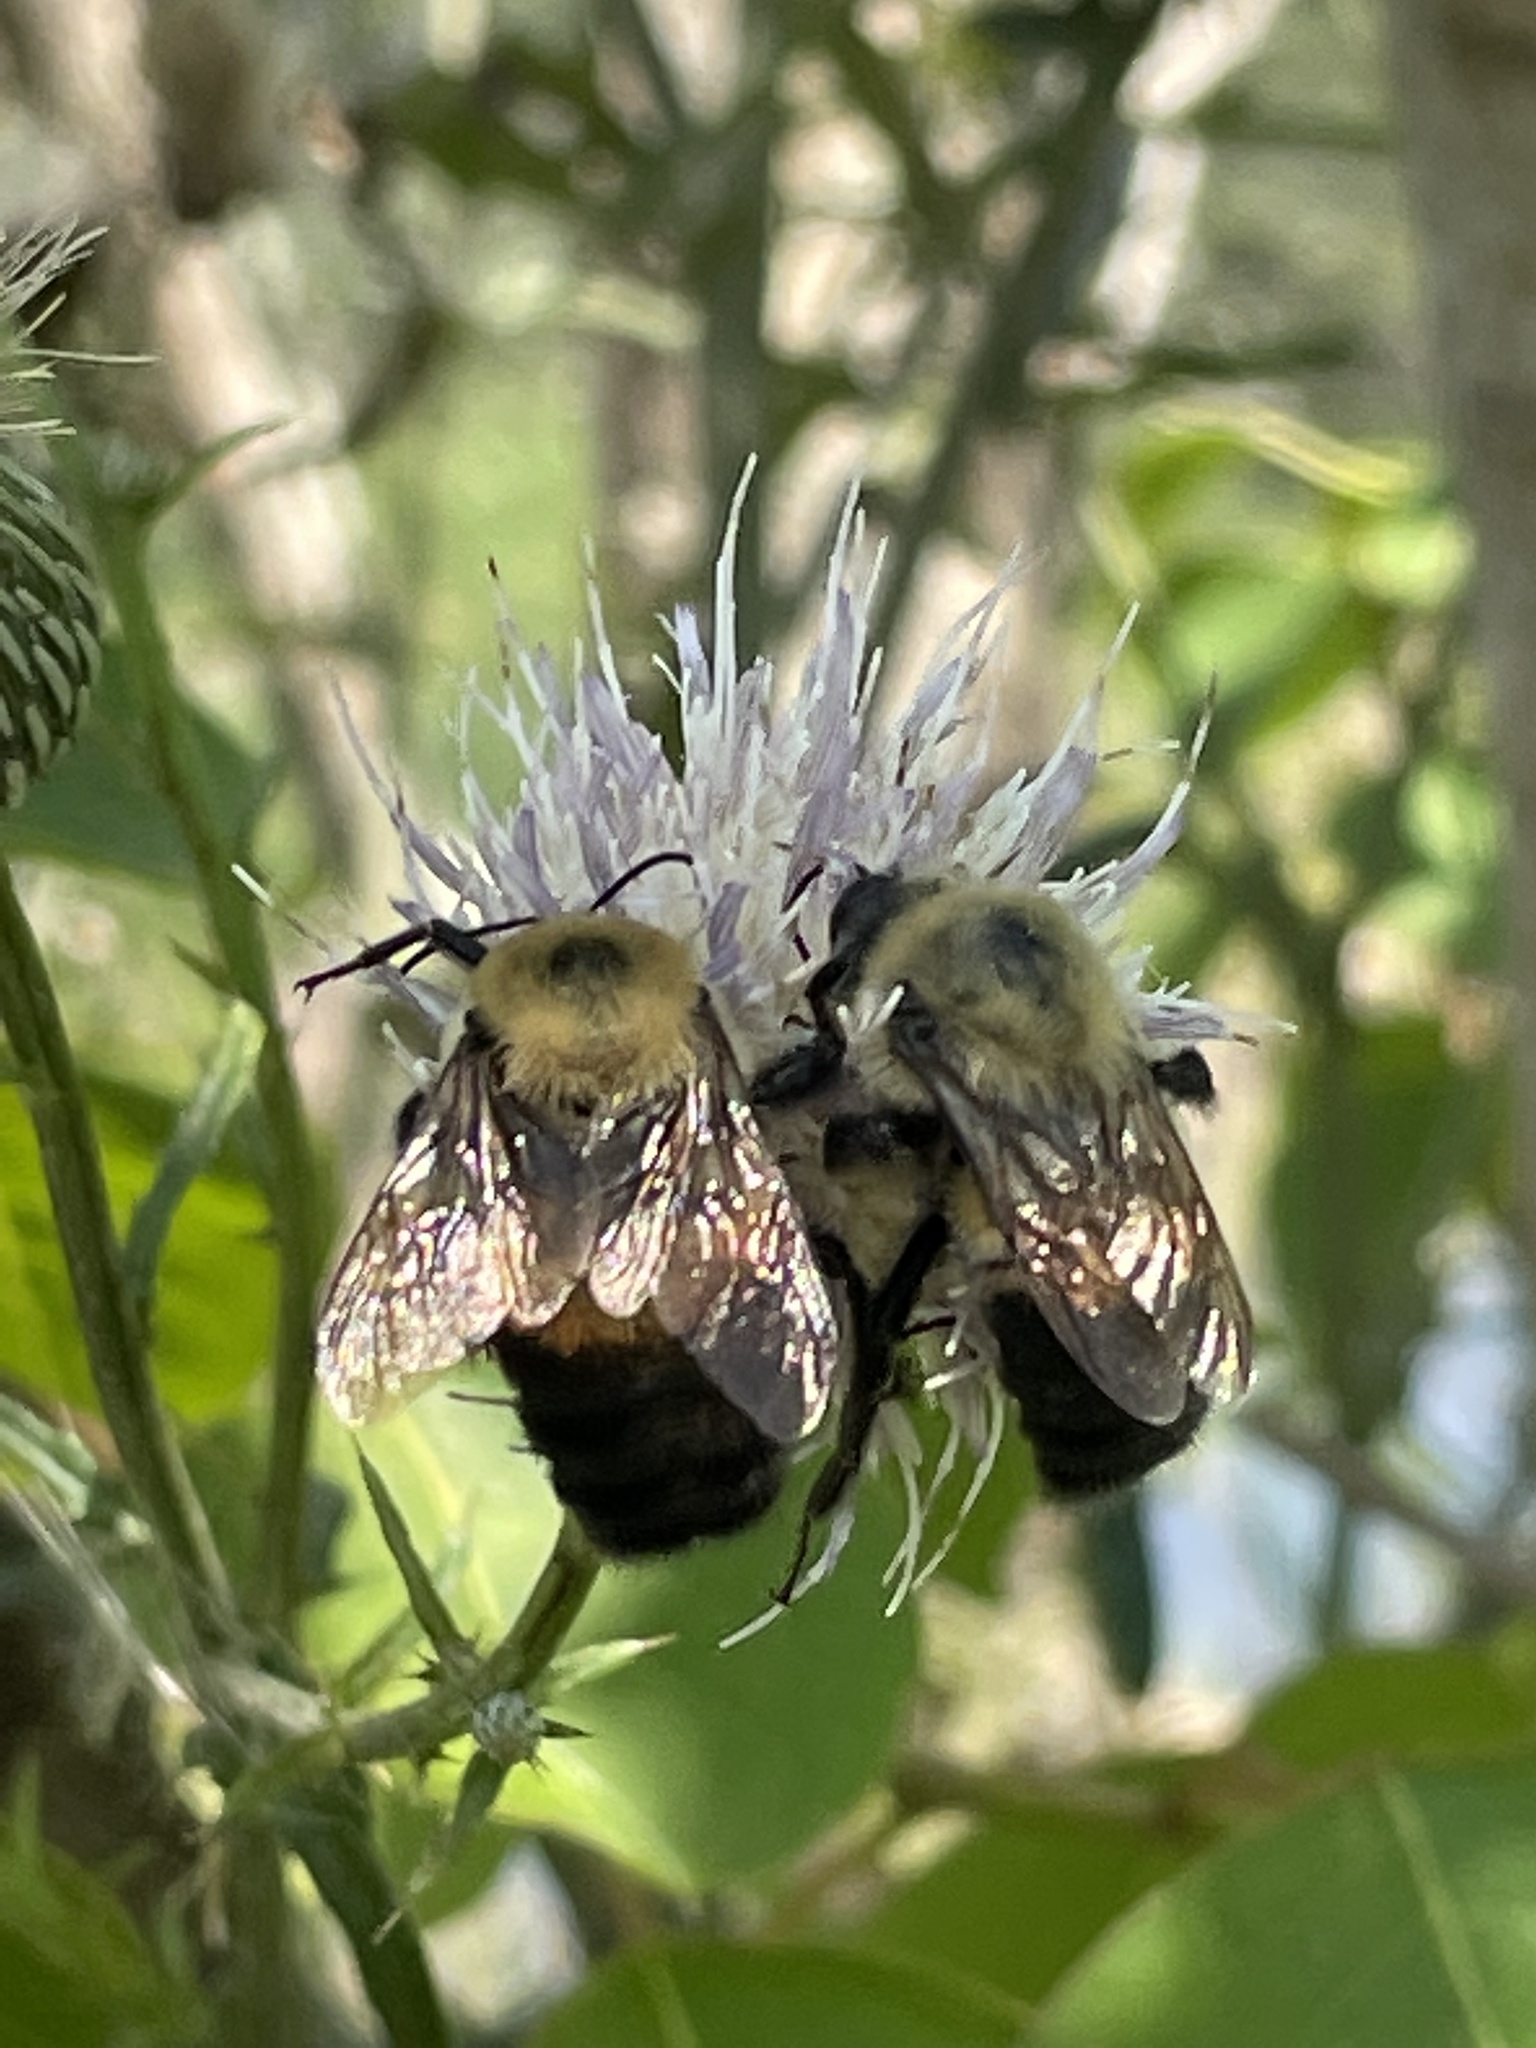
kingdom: Animalia
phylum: Arthropoda
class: Insecta
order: Hymenoptera
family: Apidae
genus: Bombus
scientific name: Bombus griseocollis
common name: Brown-belted bumble bee
